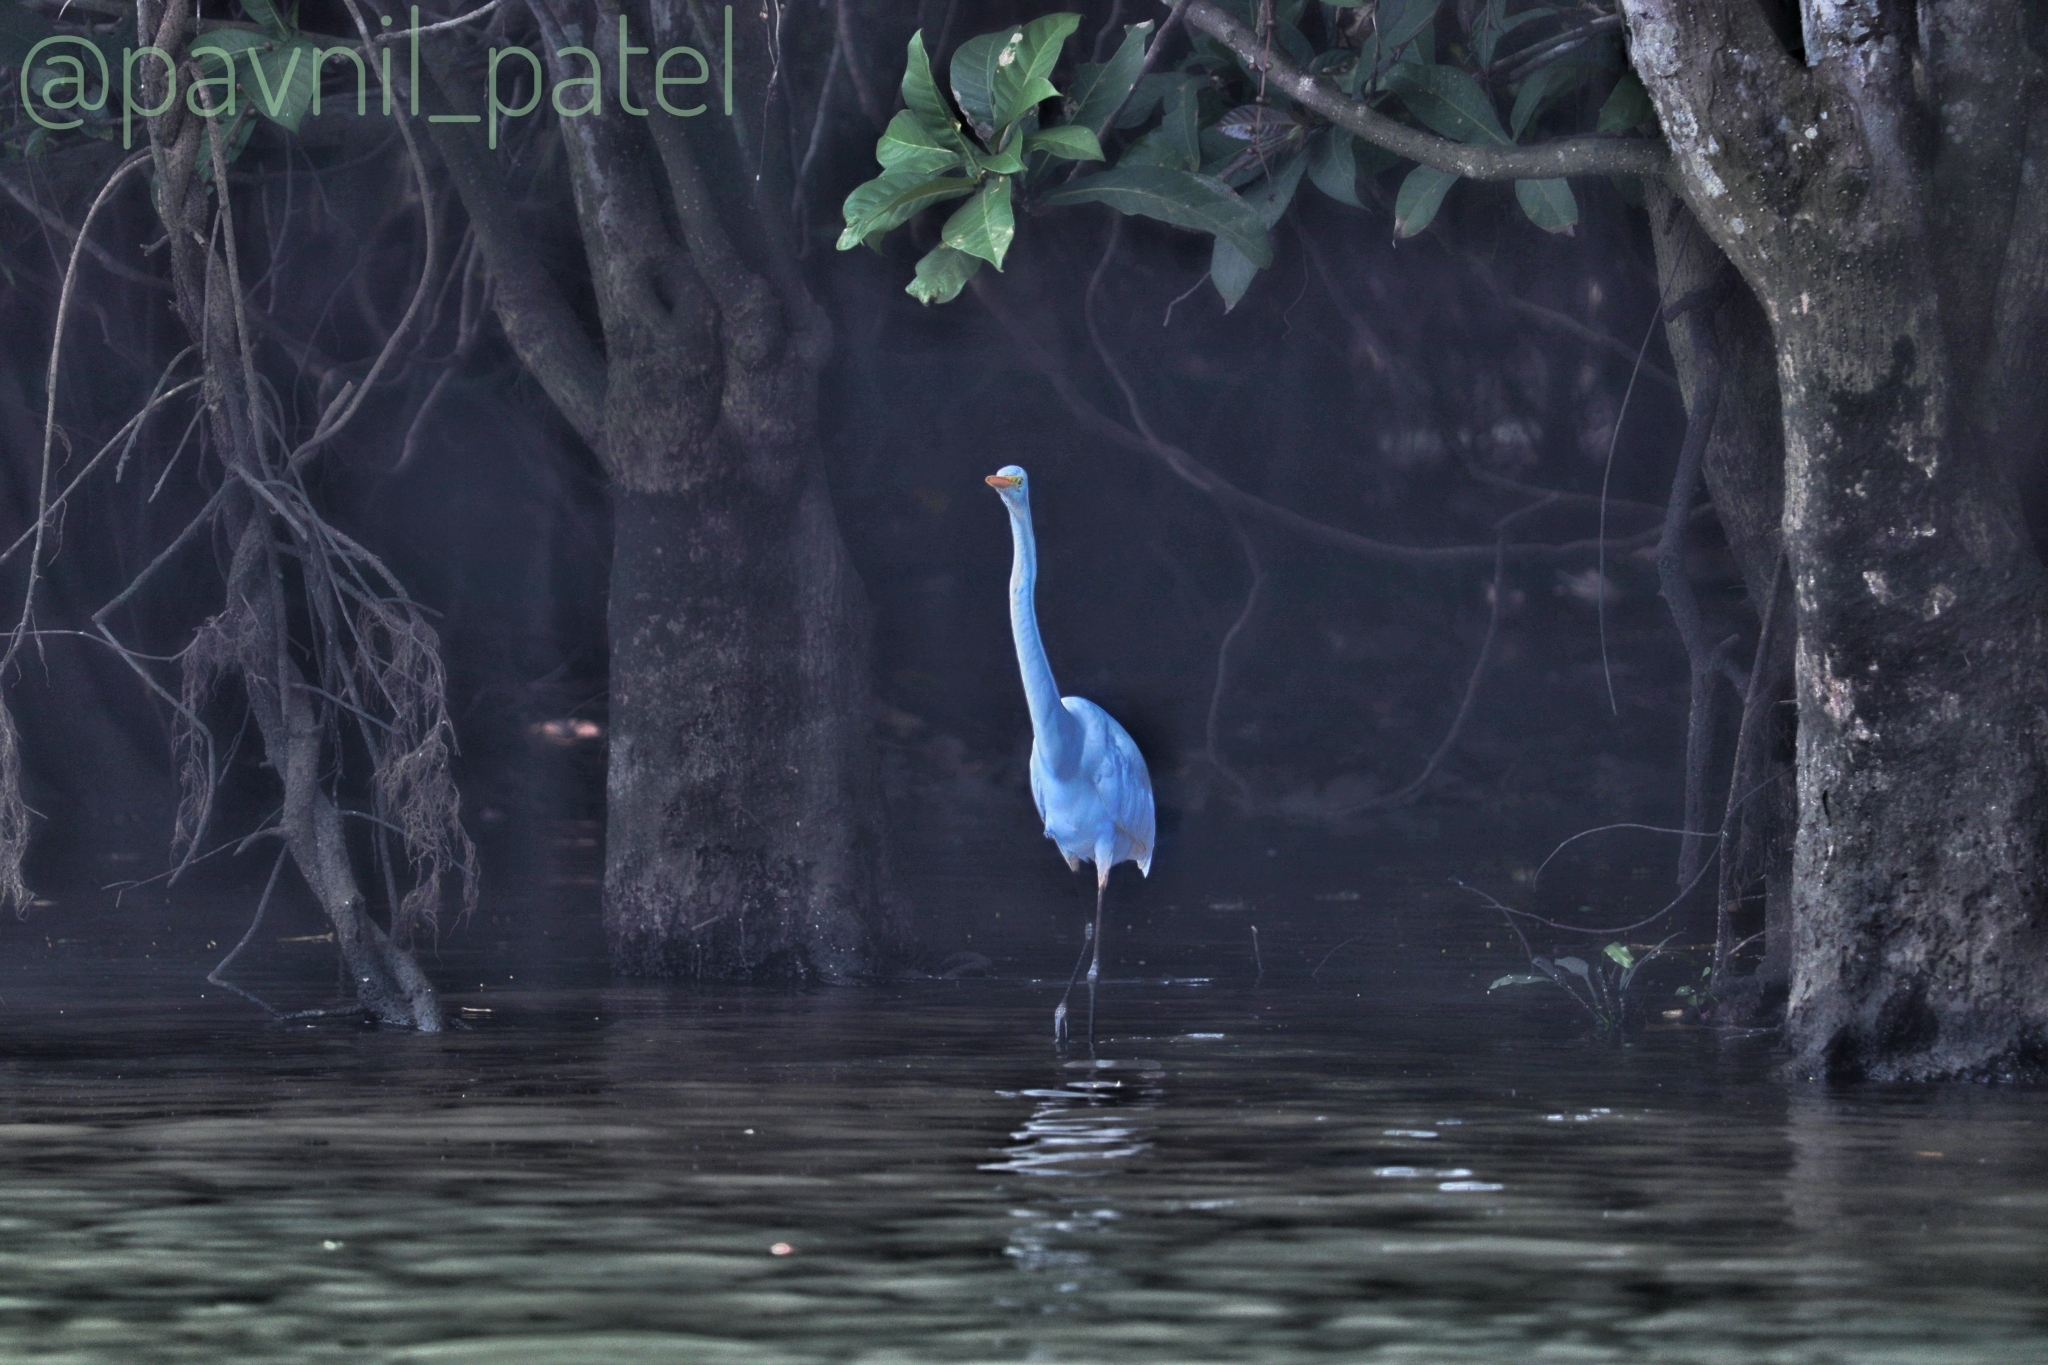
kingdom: Animalia
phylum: Chordata
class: Aves
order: Pelecaniformes
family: Ardeidae
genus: Ardea
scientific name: Ardea alba
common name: Great egret
